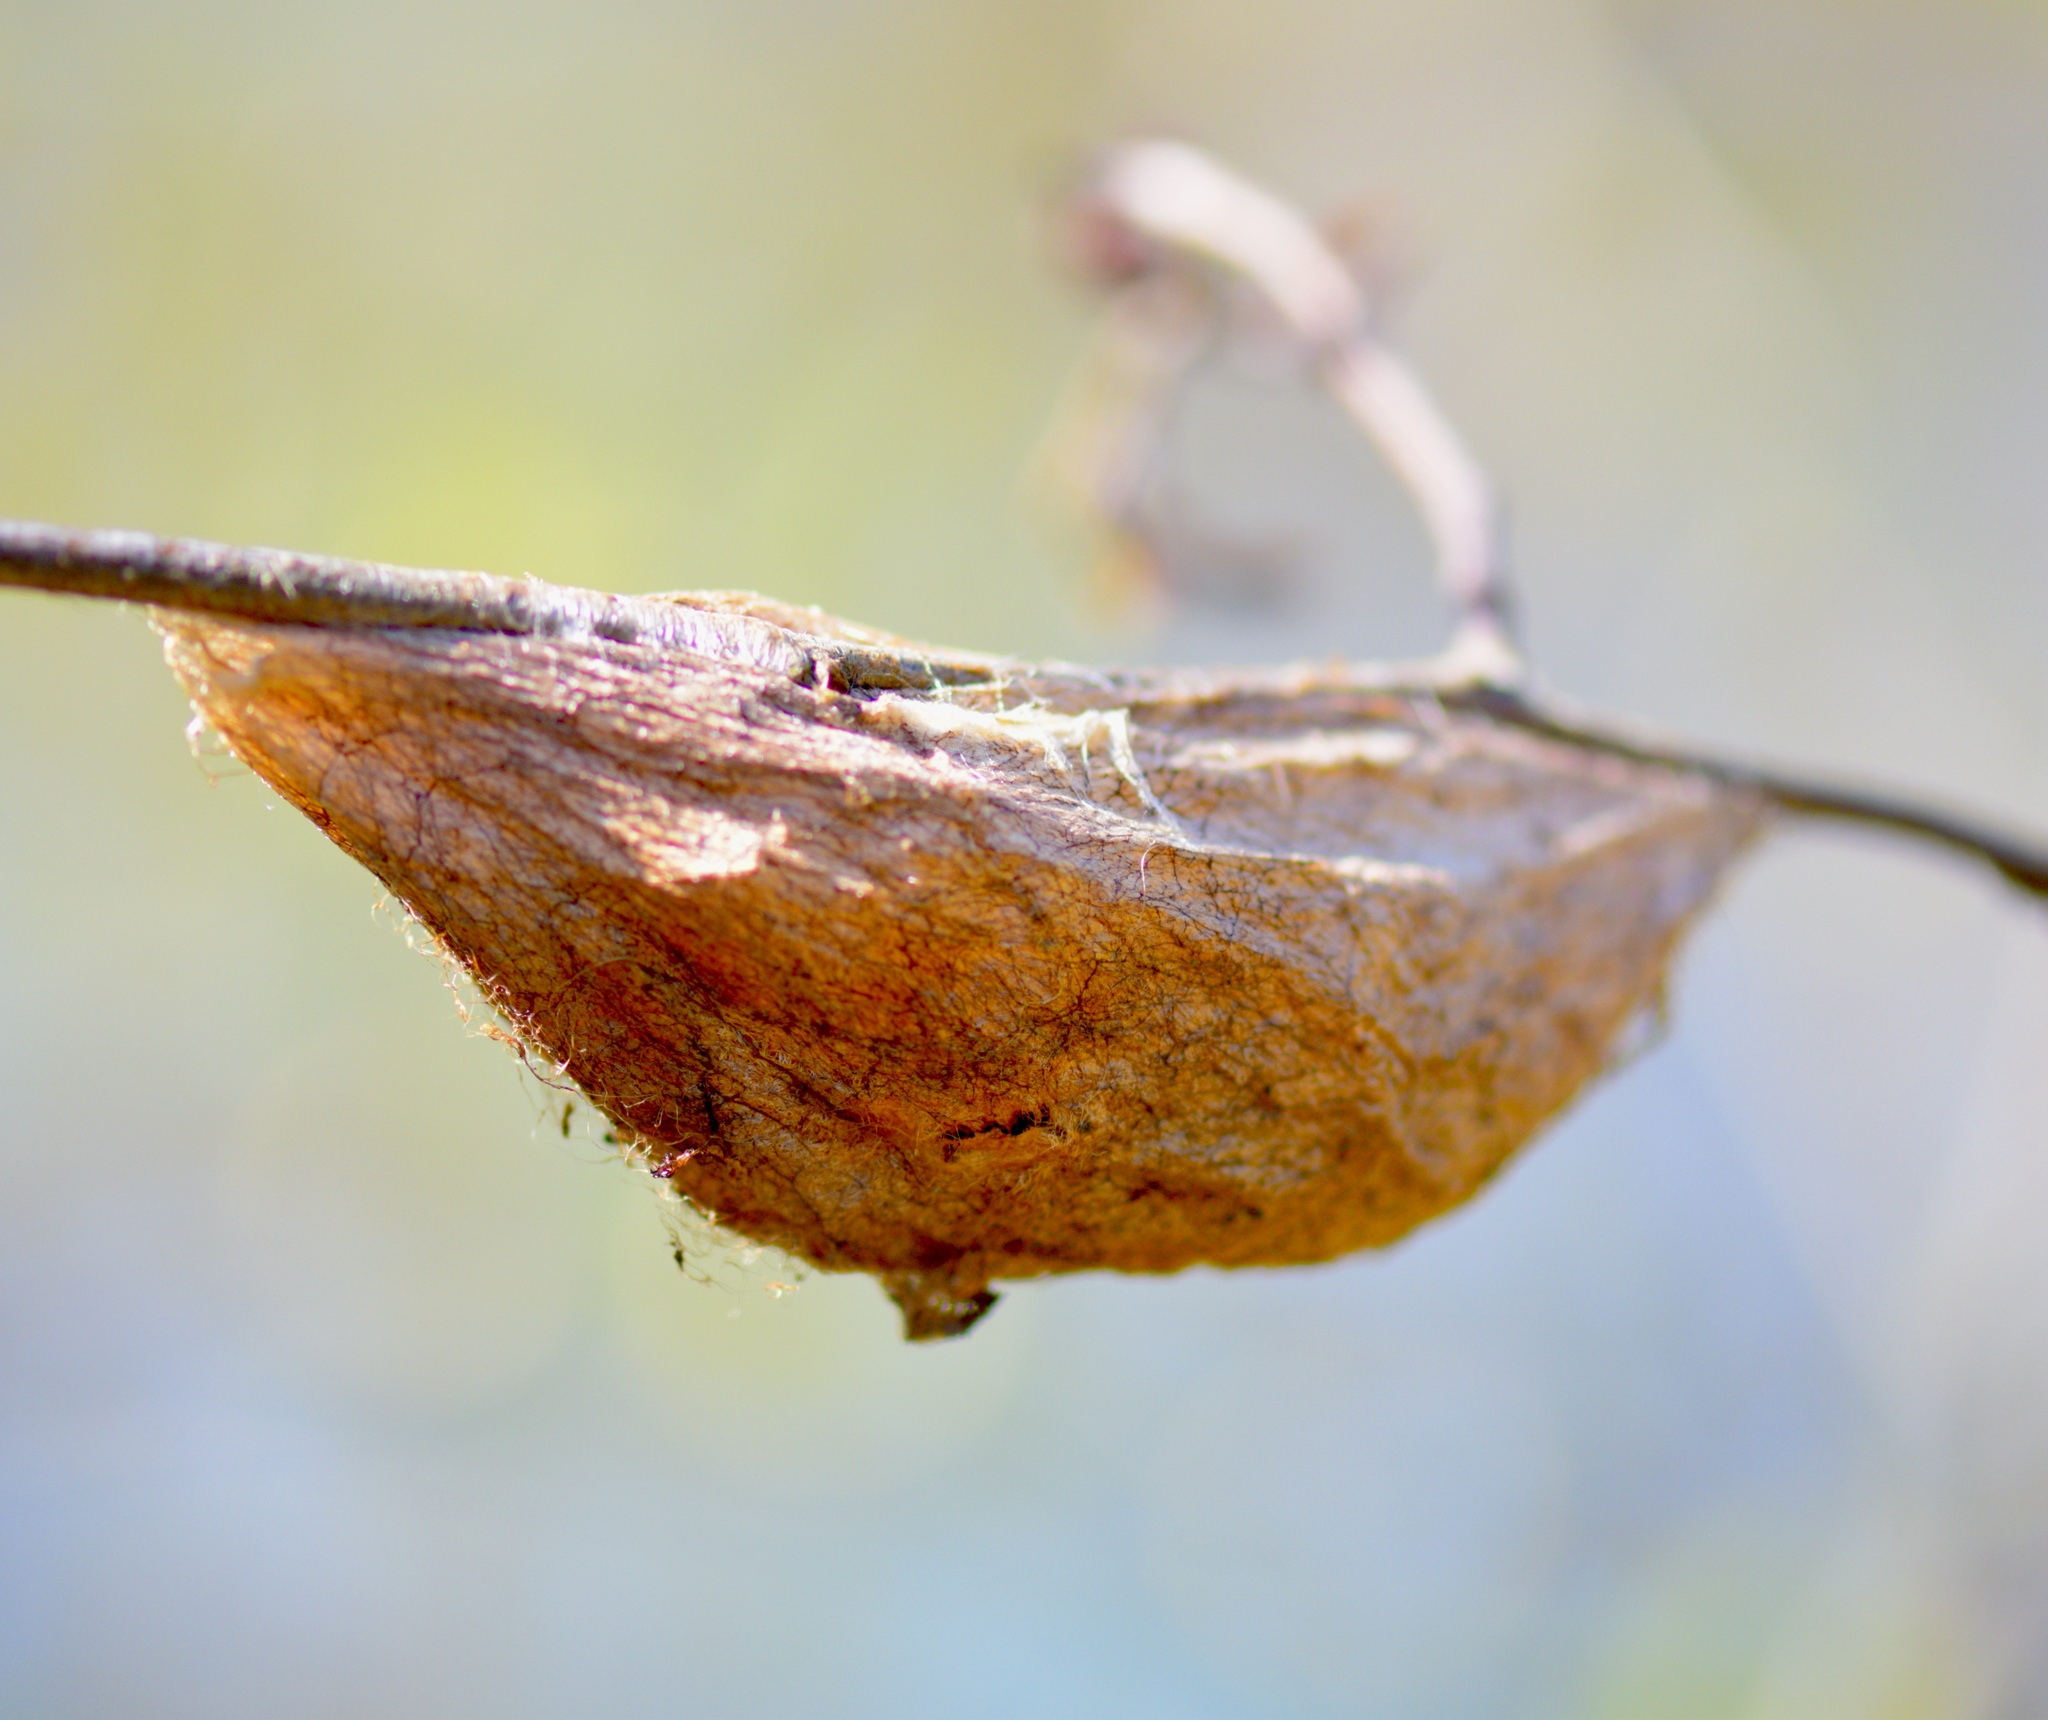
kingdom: Animalia
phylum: Arthropoda
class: Insecta
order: Lepidoptera
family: Saturniidae
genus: Hyalophora
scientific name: Hyalophora cecropia
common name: Cecropia silkmoth
